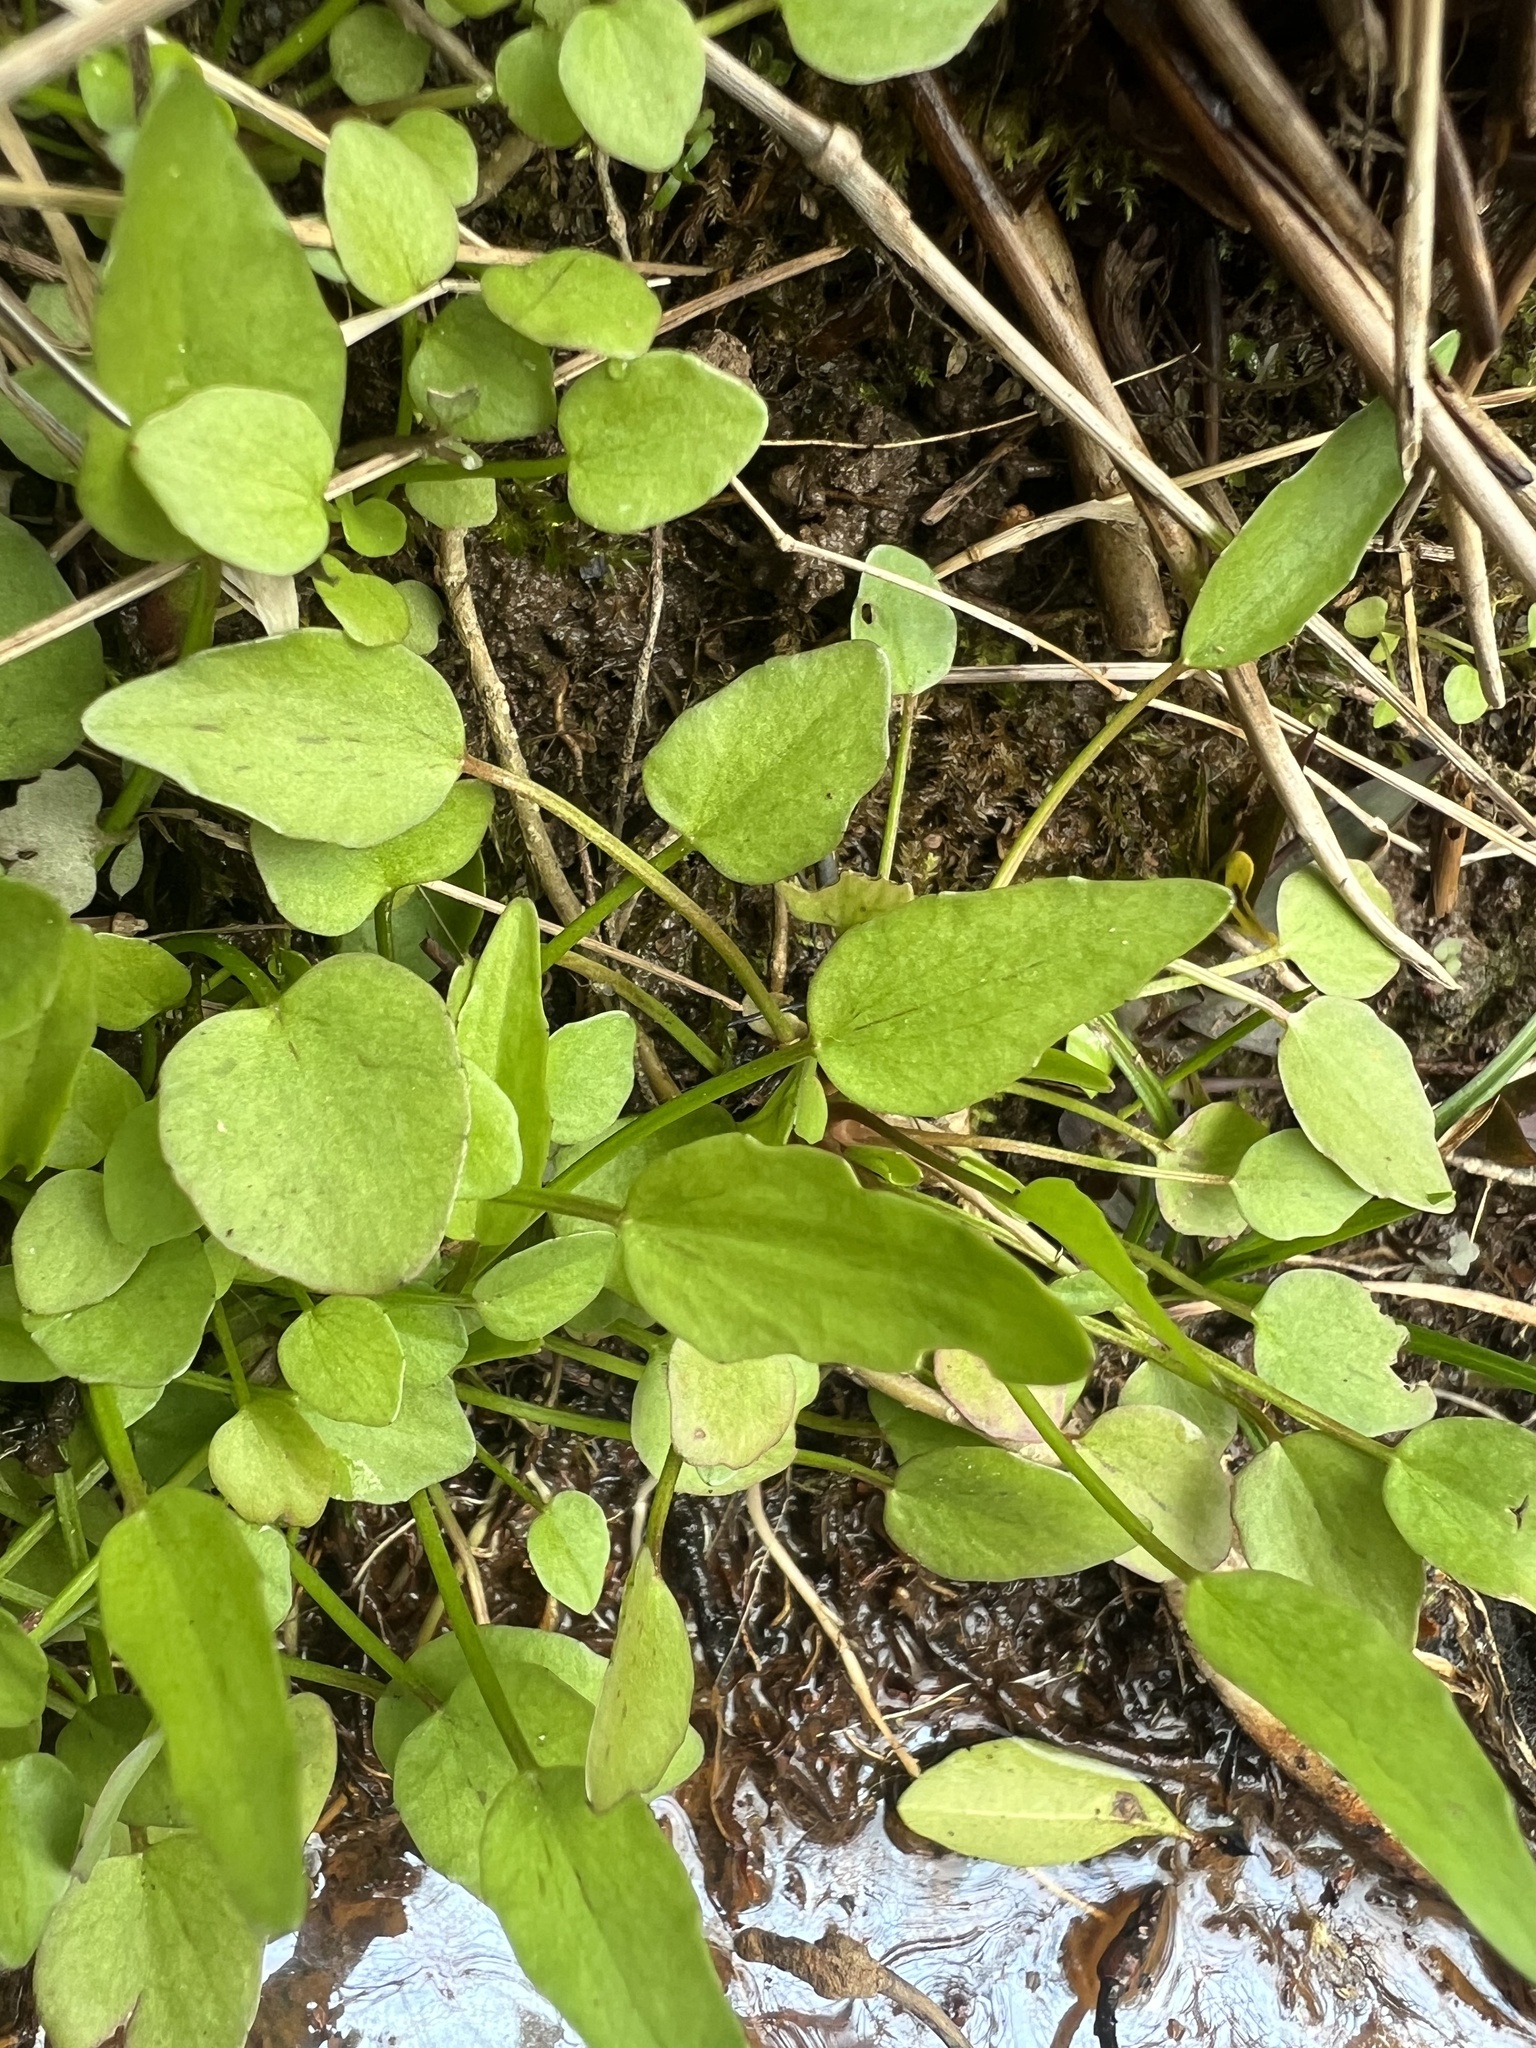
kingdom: Plantae
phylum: Tracheophyta
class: Magnoliopsida
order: Ranunculales
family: Ranunculaceae
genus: Ranunculus
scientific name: Ranunculus pusillus
